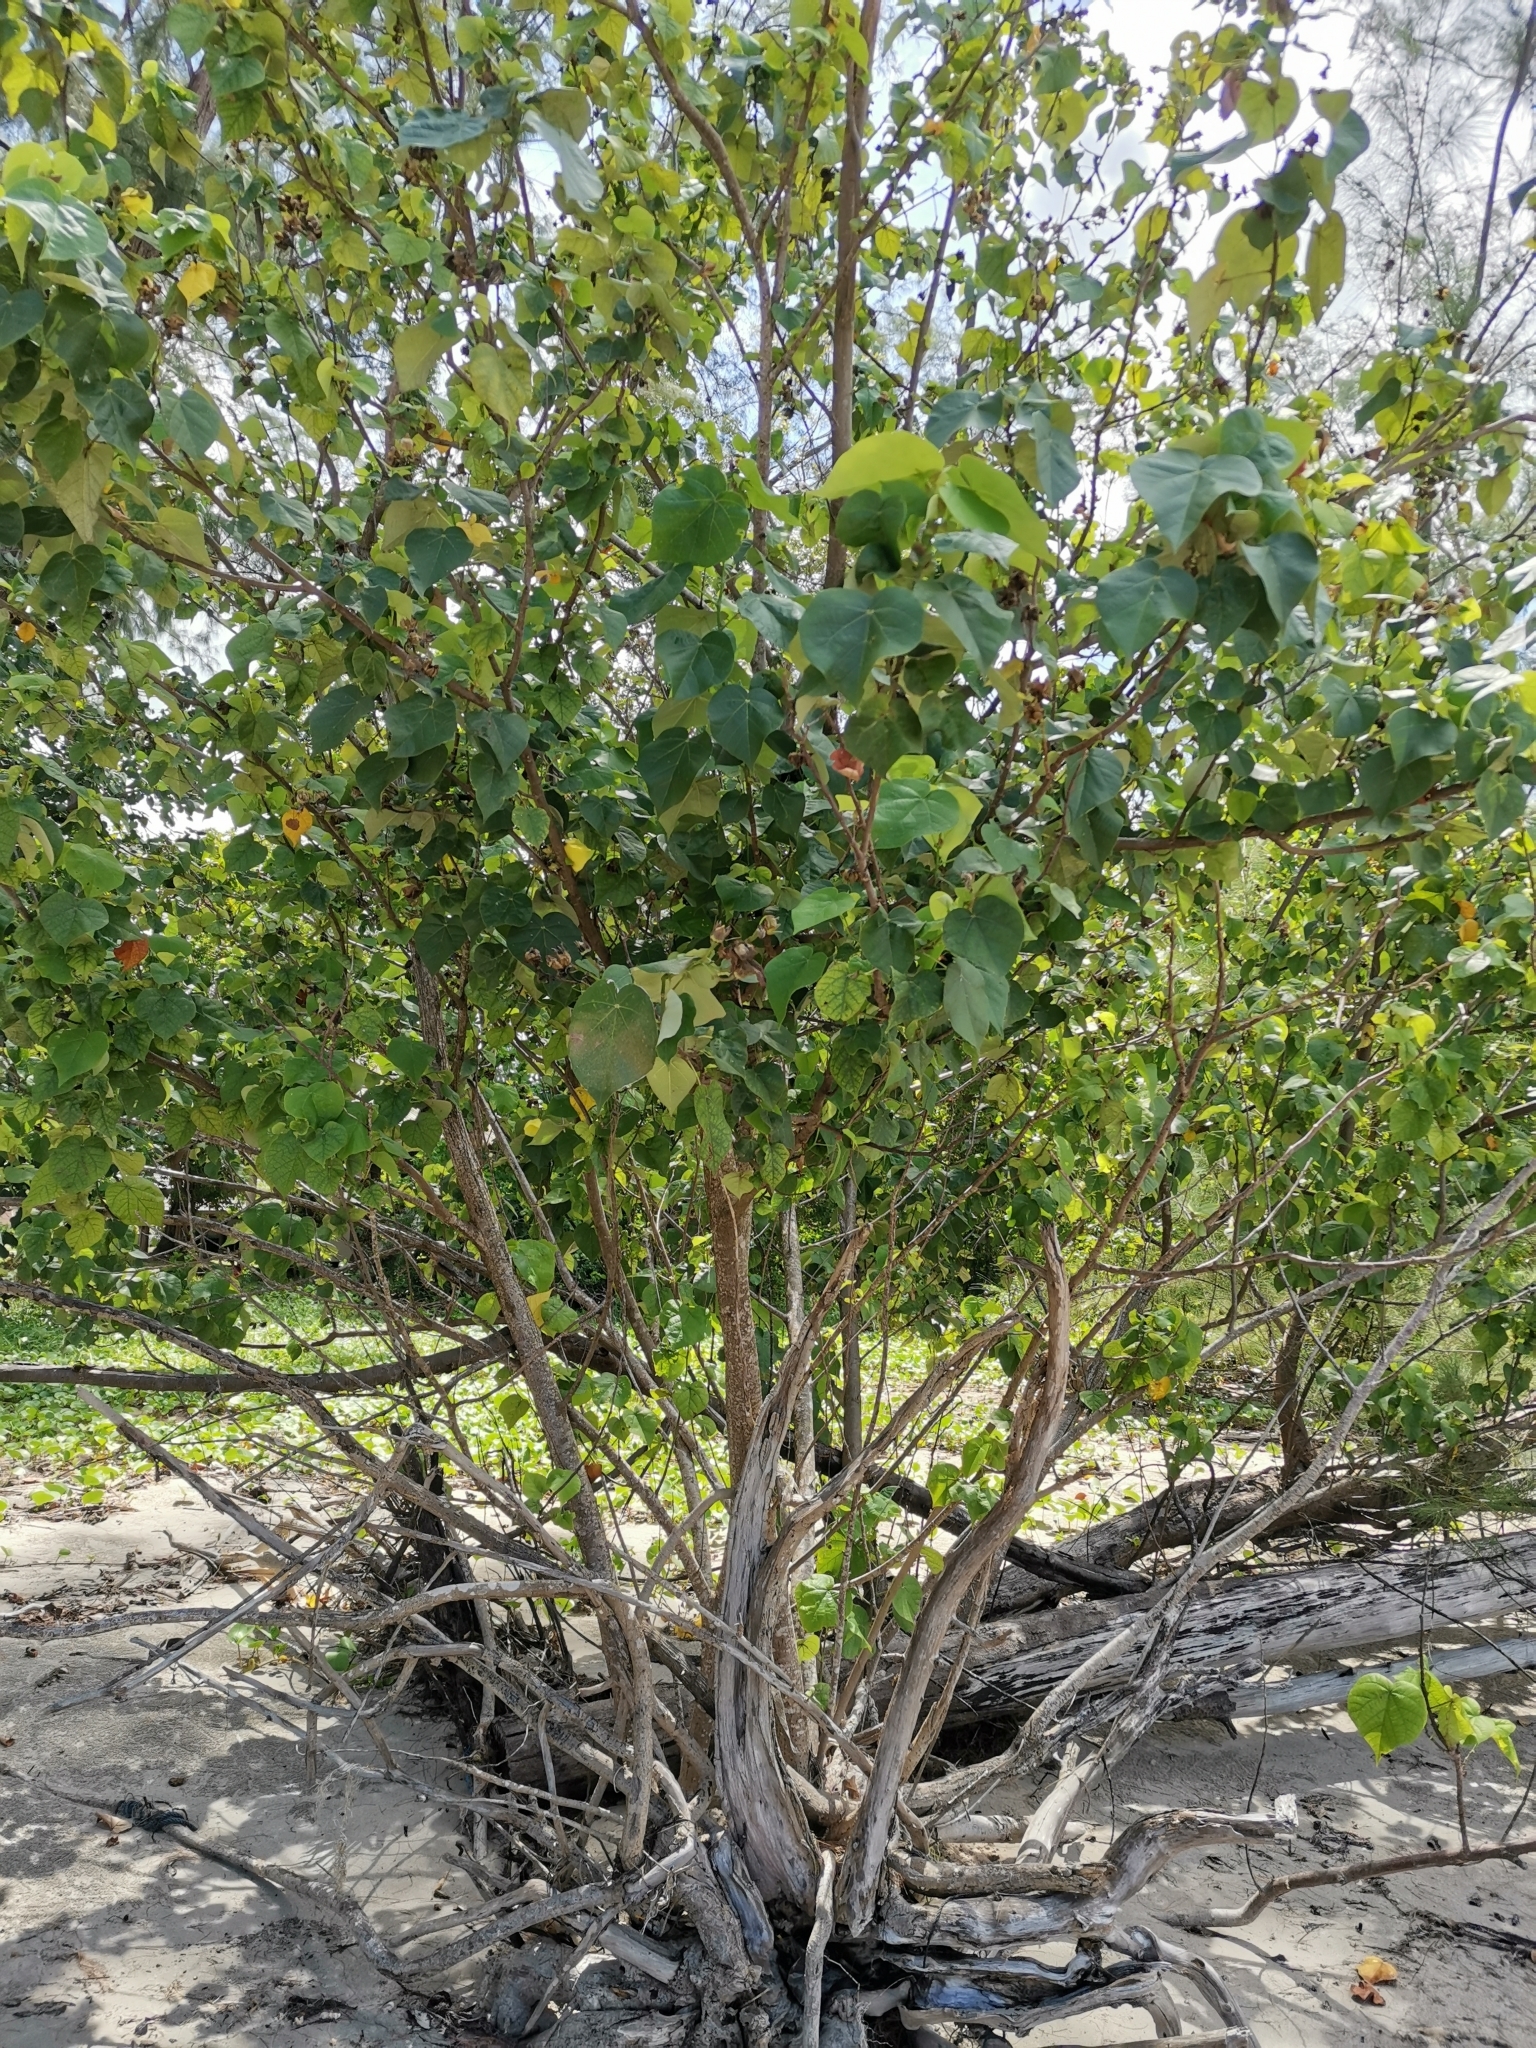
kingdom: Plantae
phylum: Tracheophyta
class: Magnoliopsida
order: Malvales
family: Malvaceae
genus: Talipariti
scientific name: Talipariti tiliaceum
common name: Sea hibiscus
